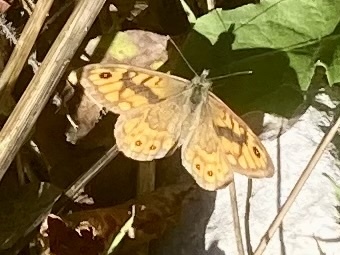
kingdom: Animalia
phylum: Arthropoda
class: Insecta
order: Lepidoptera
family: Nymphalidae
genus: Pararge
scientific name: Pararge Lasiommata megera
